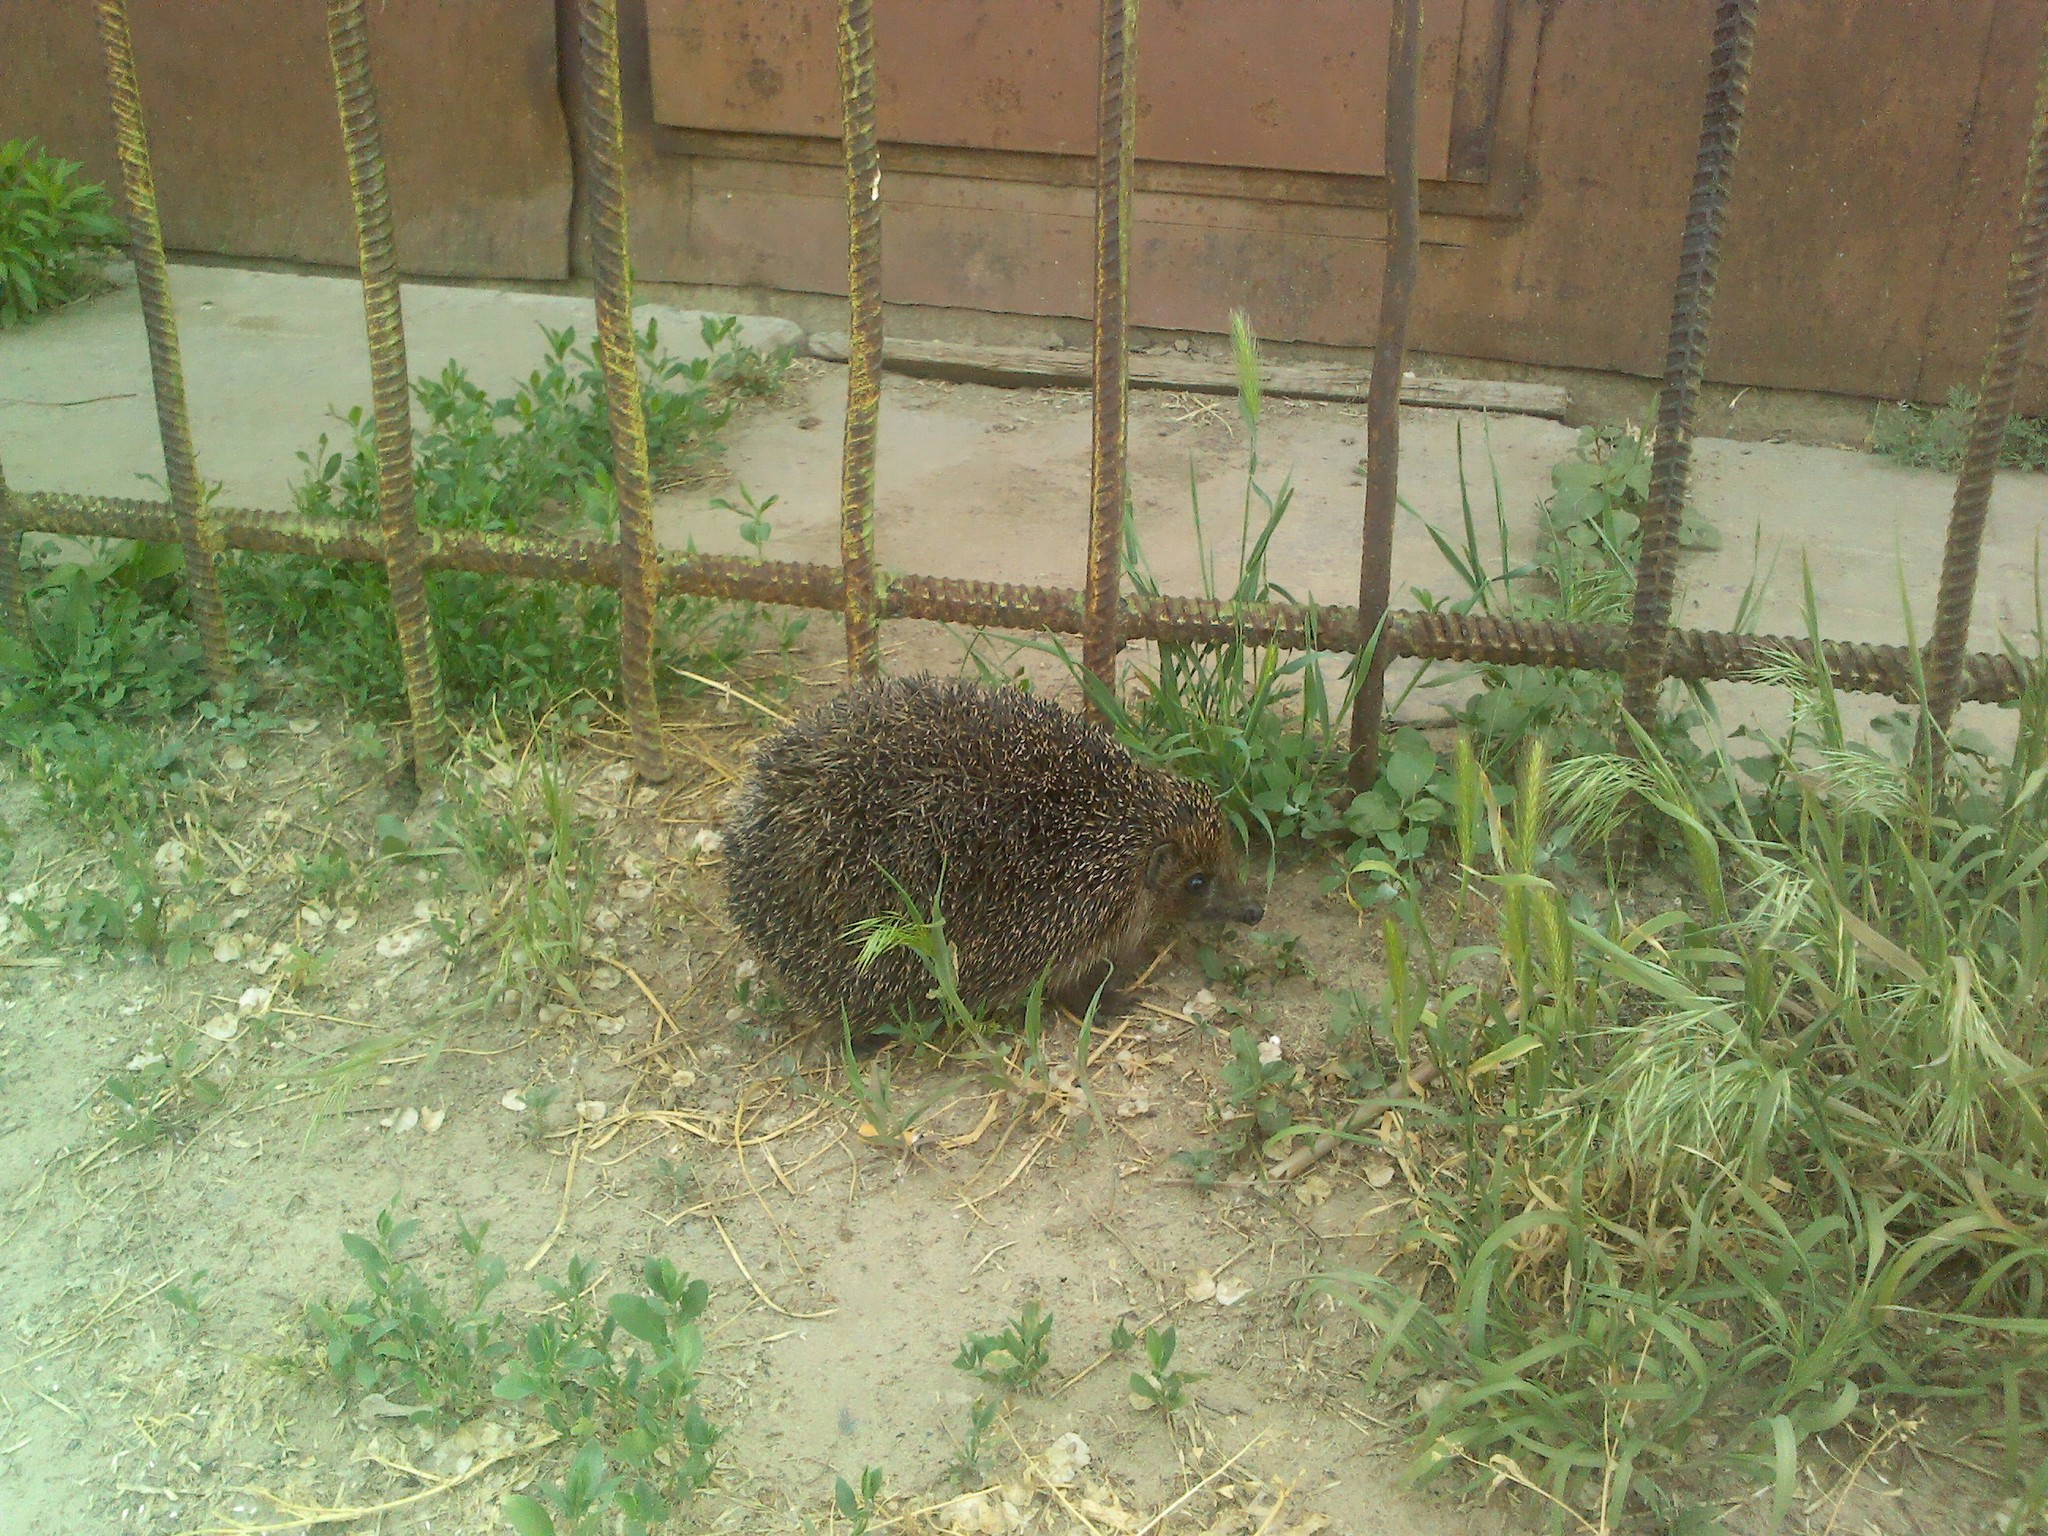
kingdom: Animalia
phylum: Chordata
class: Mammalia
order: Erinaceomorpha
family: Erinaceidae
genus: Erinaceus
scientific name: Erinaceus roumanicus
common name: Northern white-breasted hedgehog
